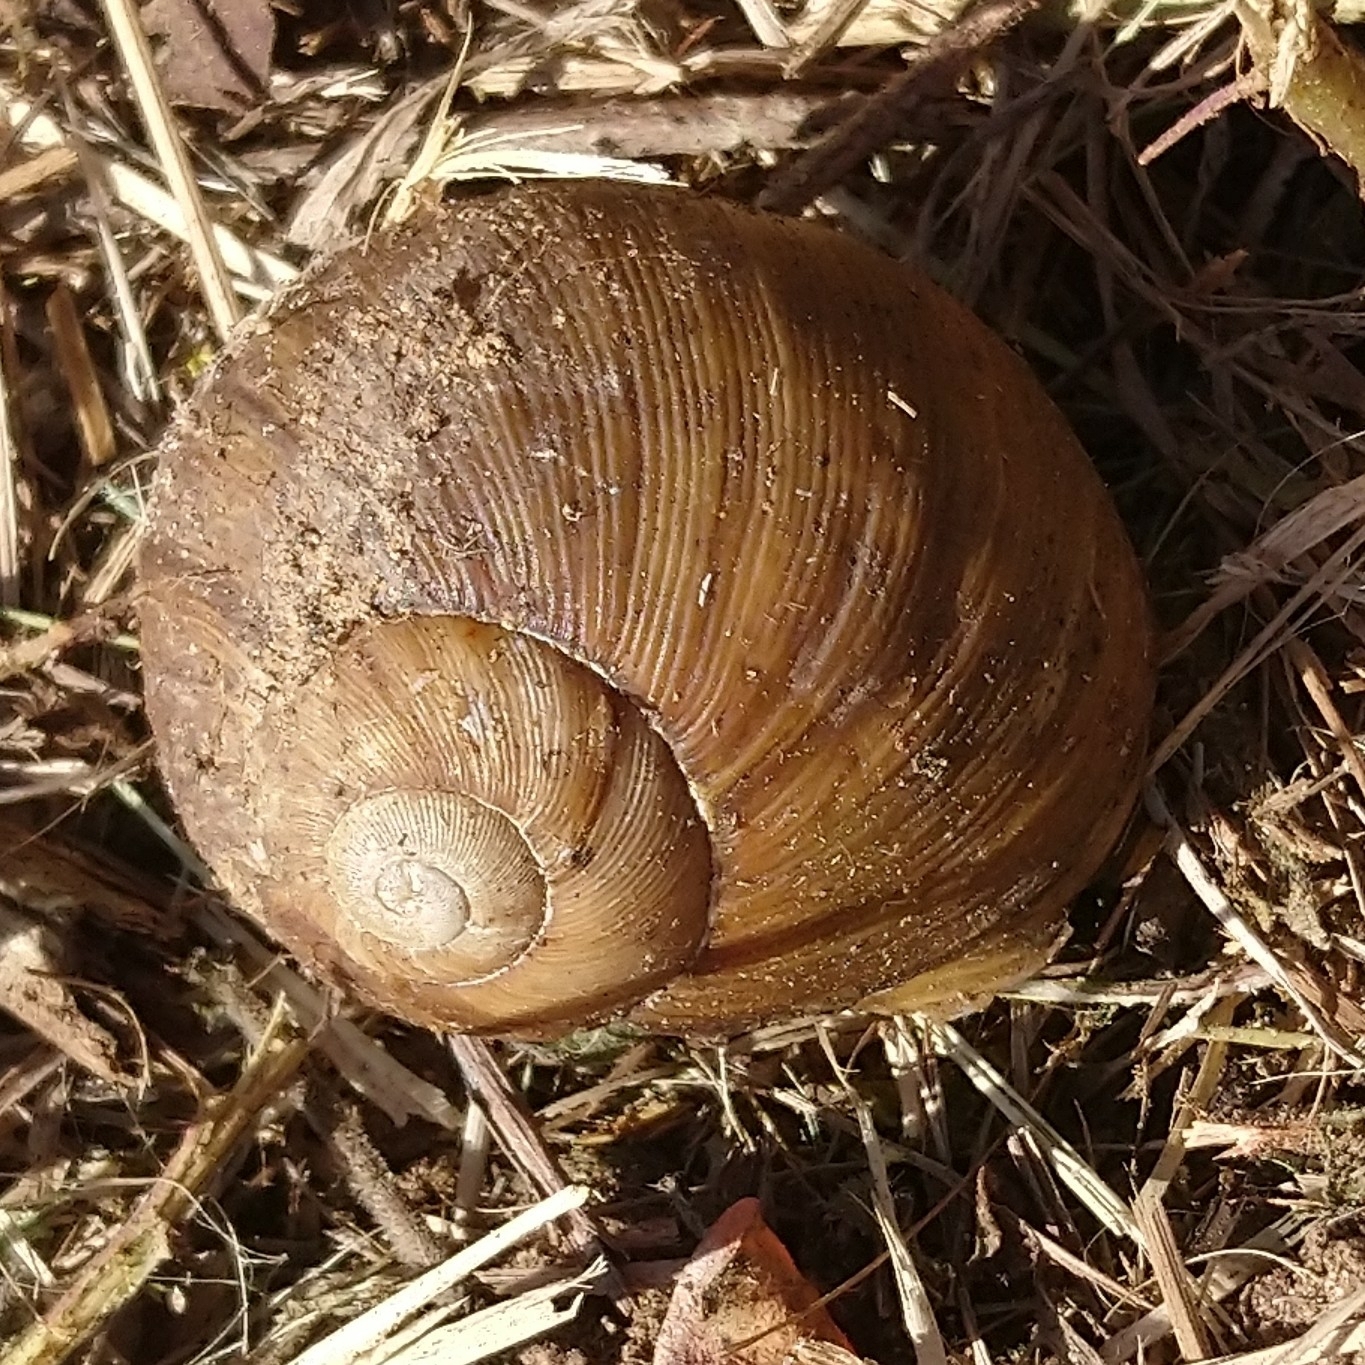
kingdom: Animalia
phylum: Mollusca
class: Gastropoda
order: Stylommatophora
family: Rhytididae
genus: Natalina
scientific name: Natalina cafra
